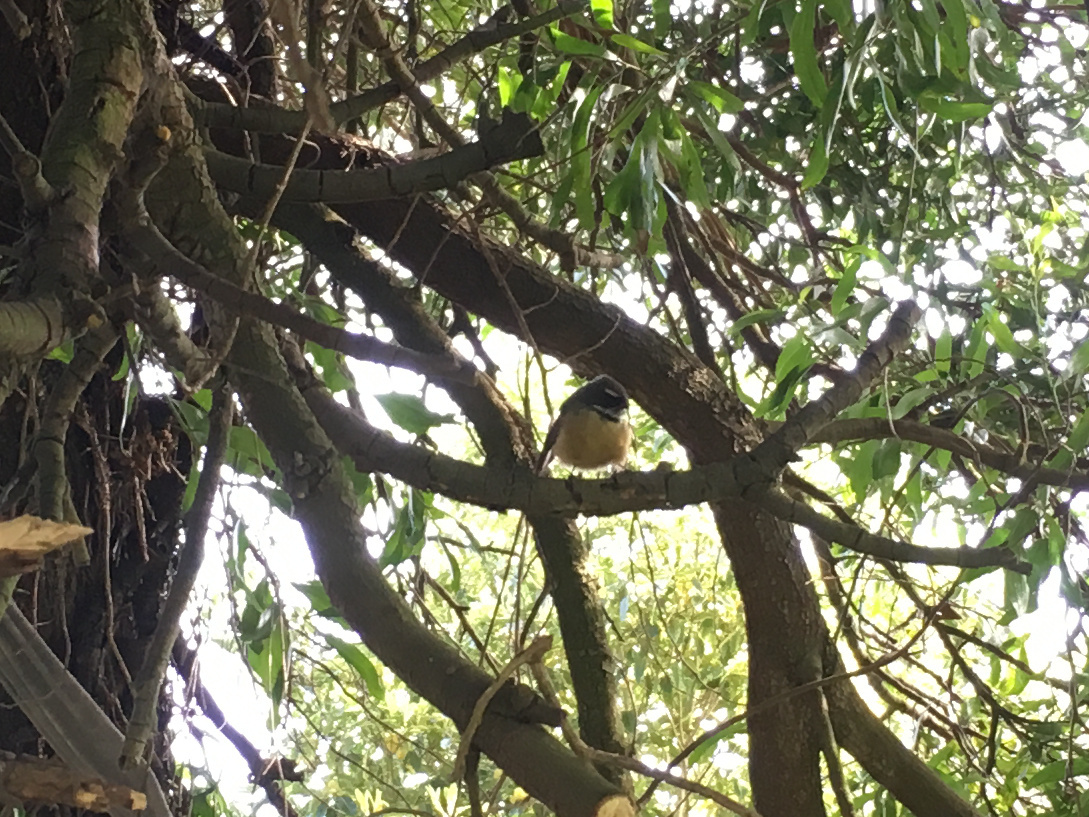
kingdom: Animalia
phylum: Chordata
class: Aves
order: Passeriformes
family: Rhipiduridae
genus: Rhipidura
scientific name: Rhipidura fuliginosa
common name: New zealand fantail
